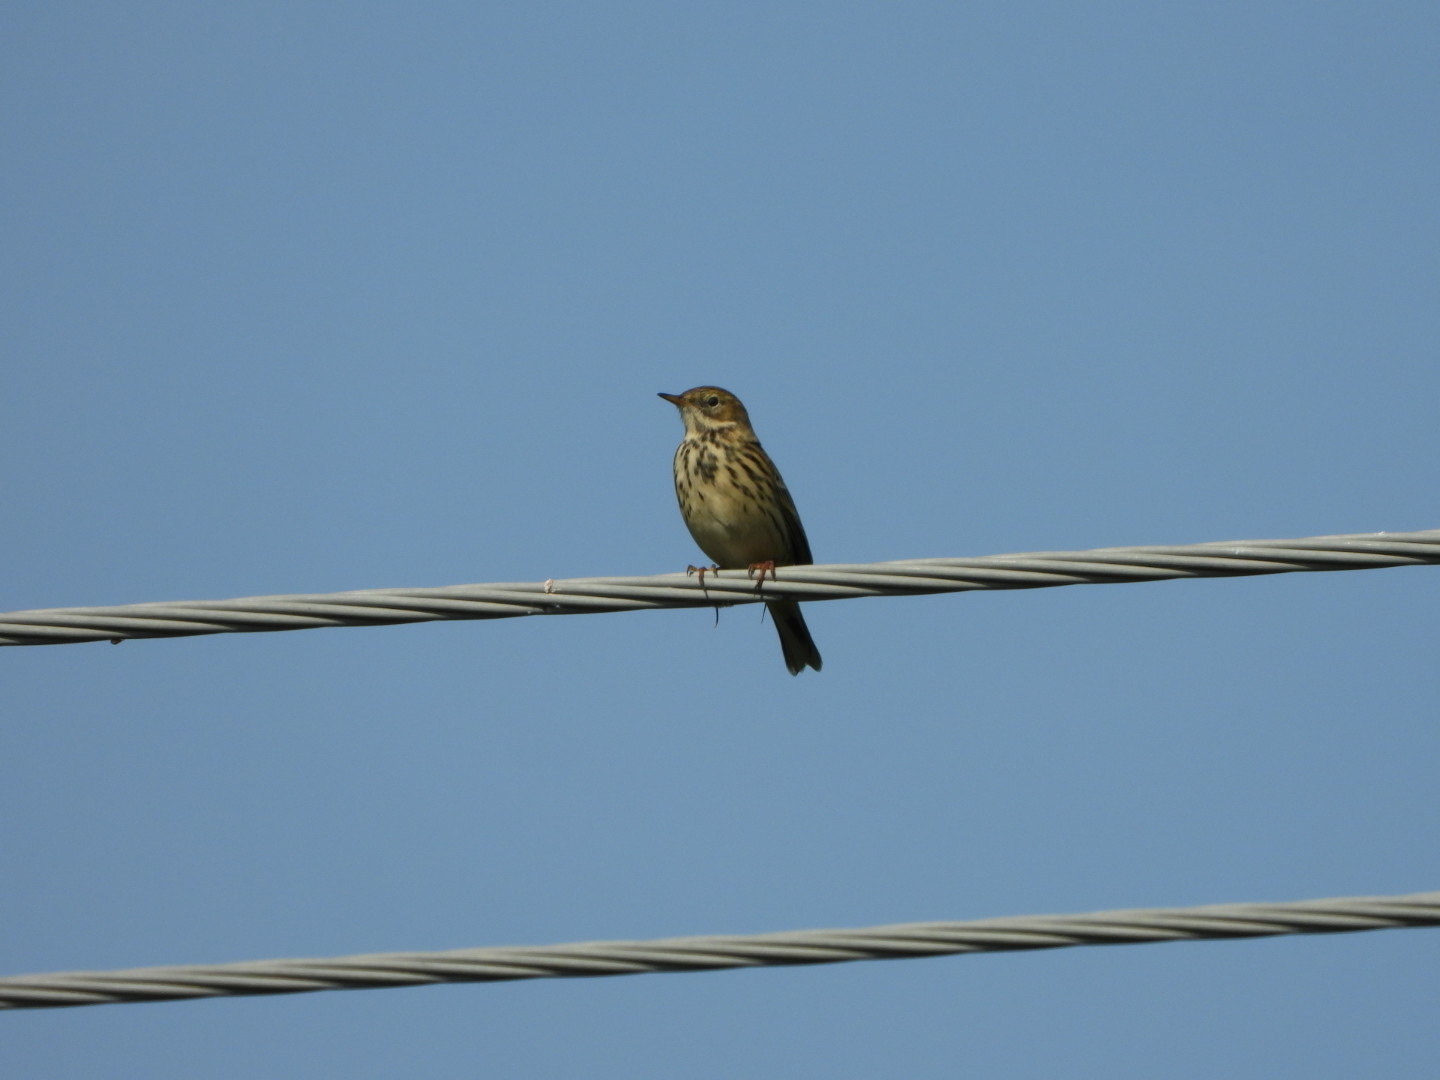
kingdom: Animalia
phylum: Chordata
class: Aves
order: Passeriformes
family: Motacillidae
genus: Anthus
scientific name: Anthus pratensis
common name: Meadow pipit
